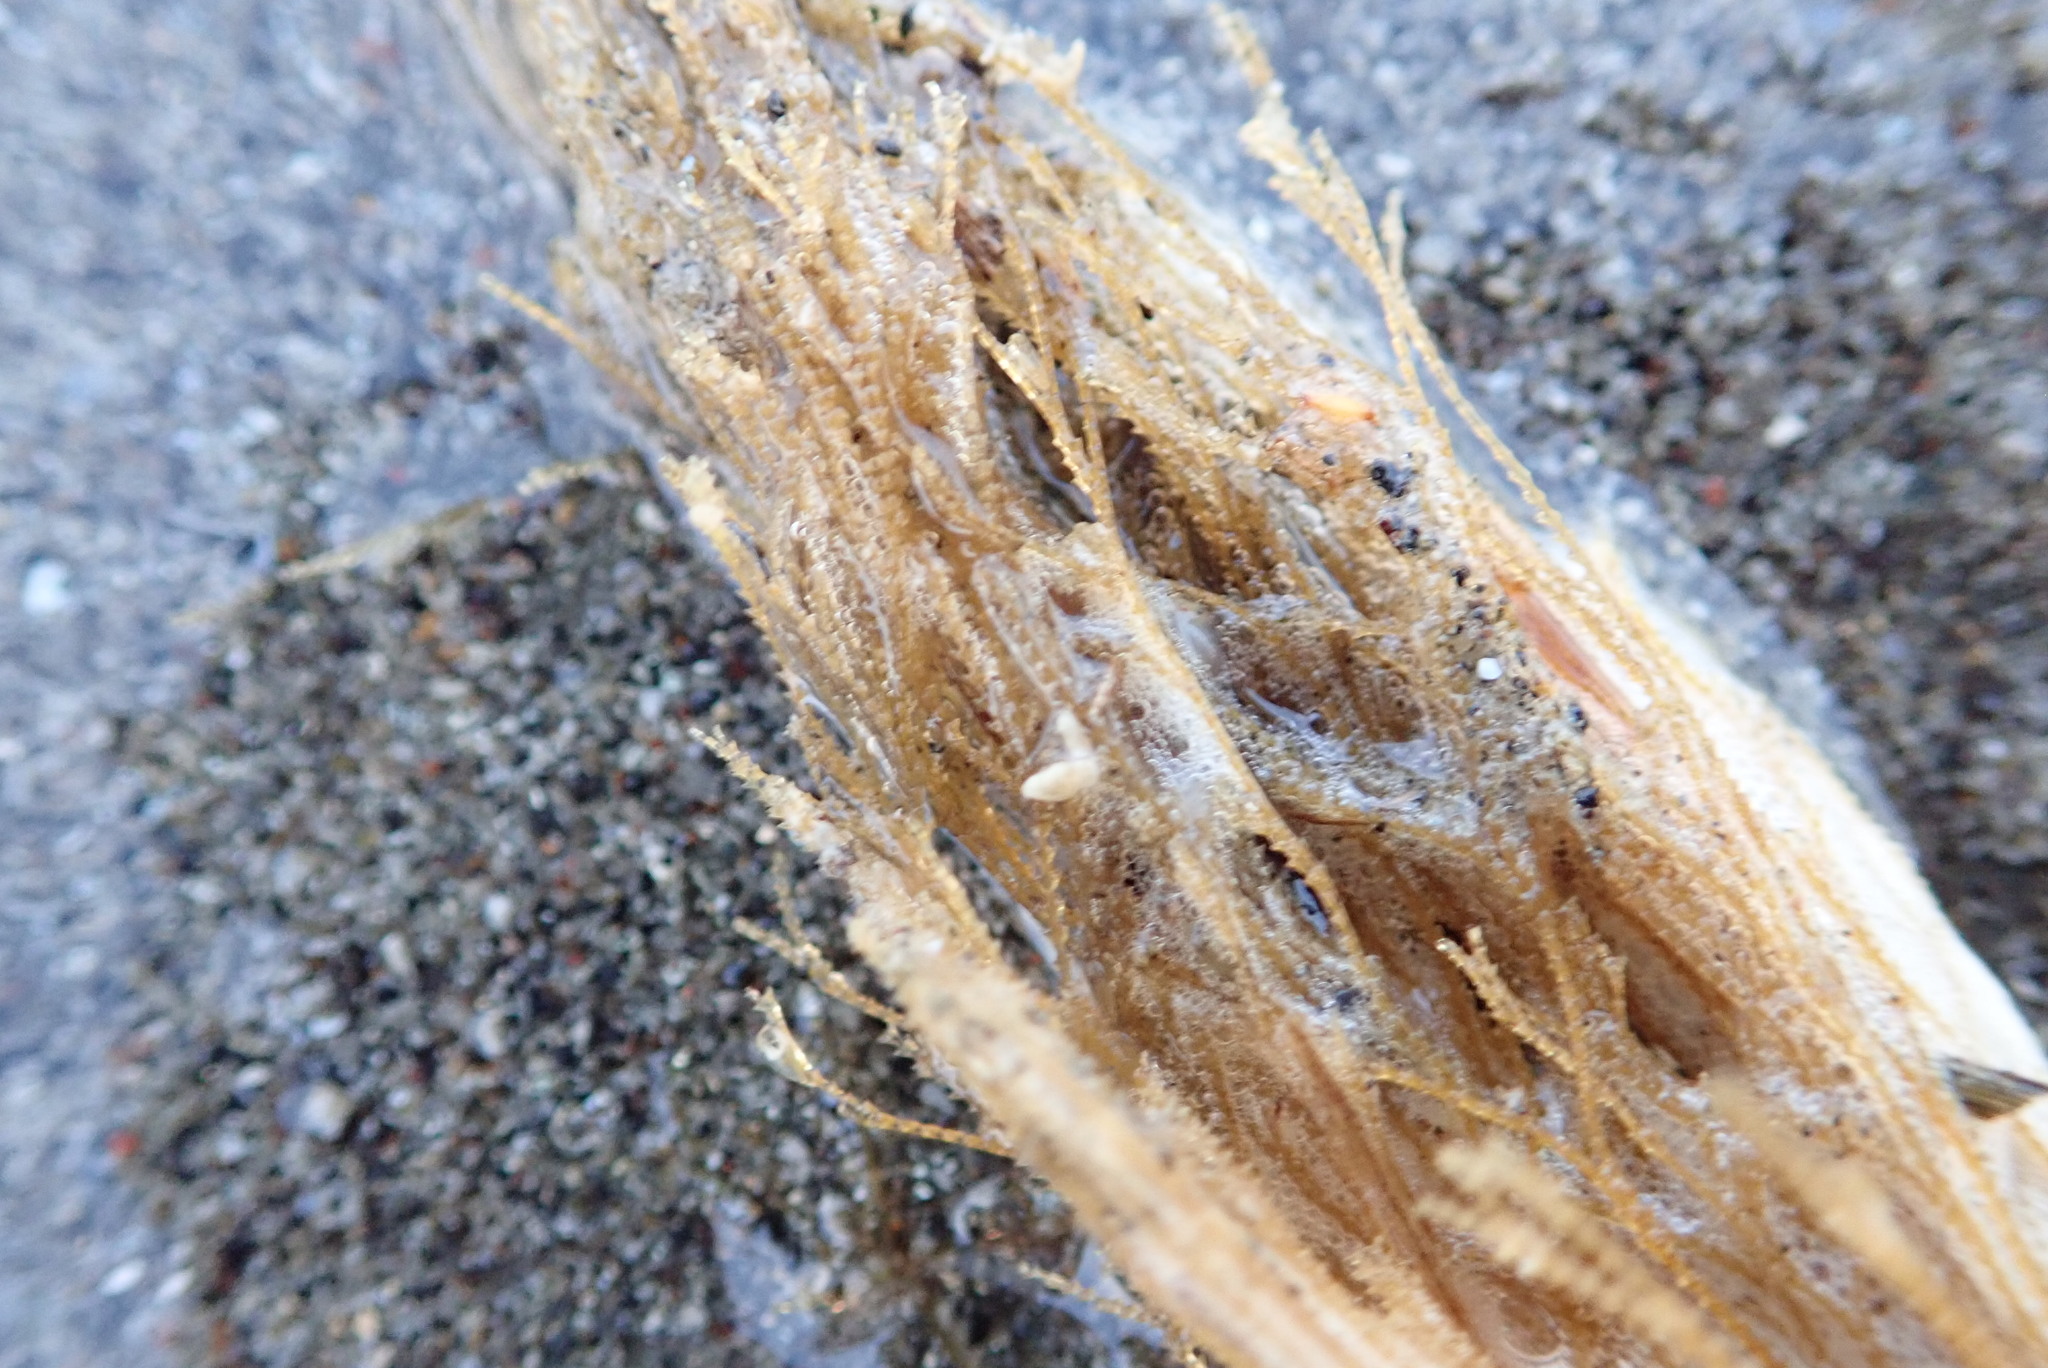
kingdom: Animalia
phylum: Cnidaria
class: Hydrozoa
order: Leptothecata
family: Sertulariidae
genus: Amphisbetia
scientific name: Amphisbetia bispinosa
